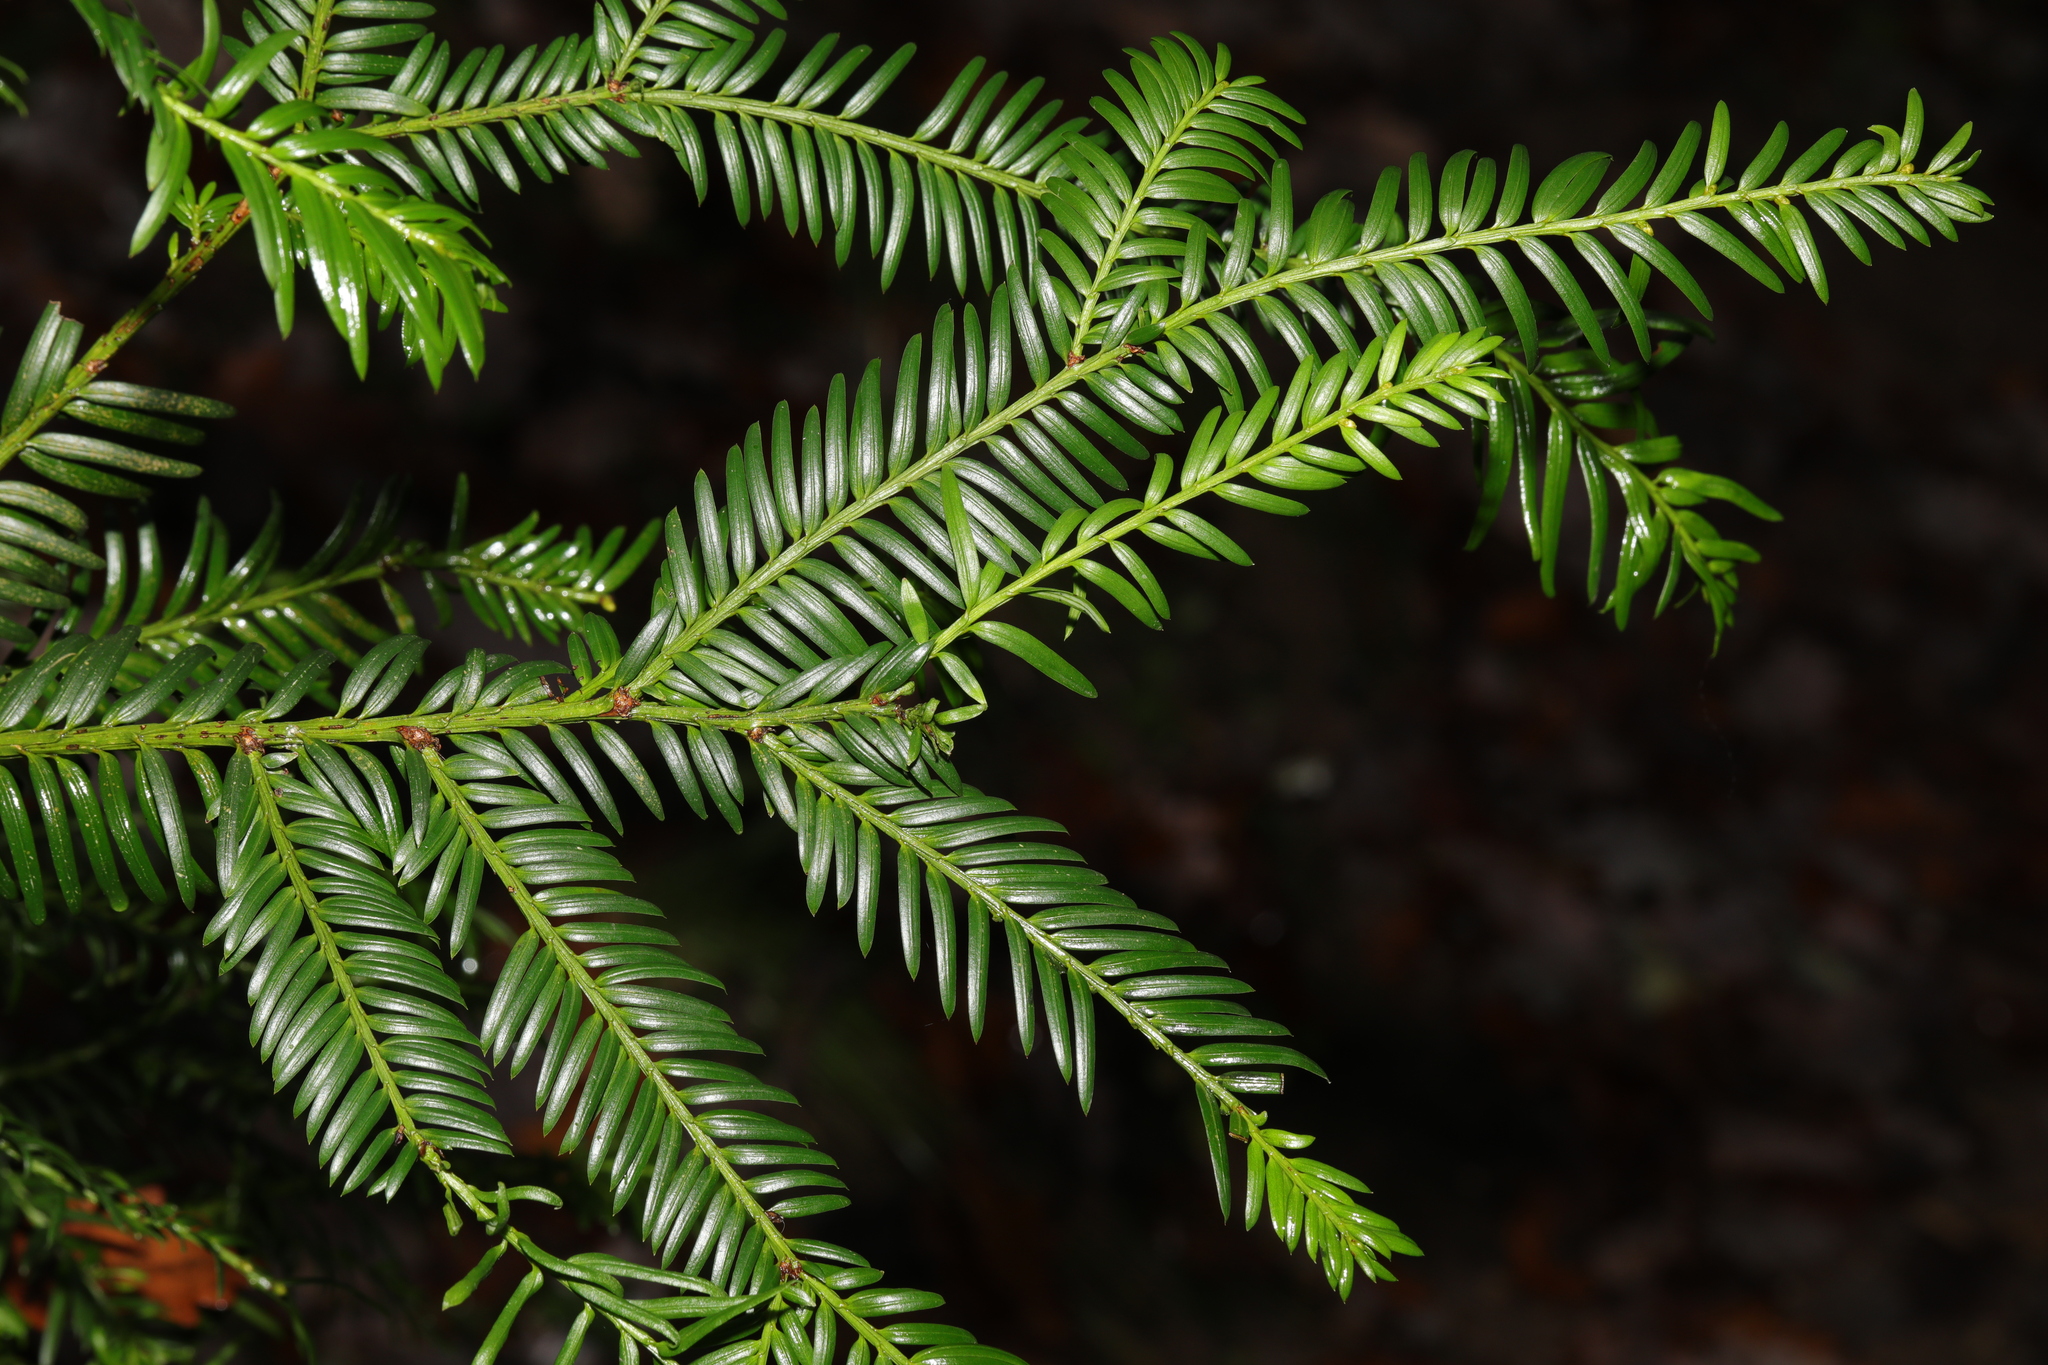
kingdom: Plantae
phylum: Tracheophyta
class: Pinopsida
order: Pinales
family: Taxaceae
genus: Taxus
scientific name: Taxus baccata
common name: Yew
